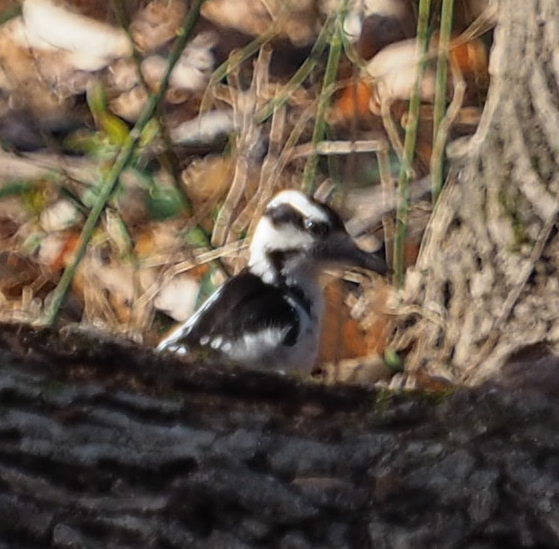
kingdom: Animalia
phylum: Chordata
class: Aves
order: Piciformes
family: Picidae
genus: Leuconotopicus
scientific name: Leuconotopicus villosus
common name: Hairy woodpecker
